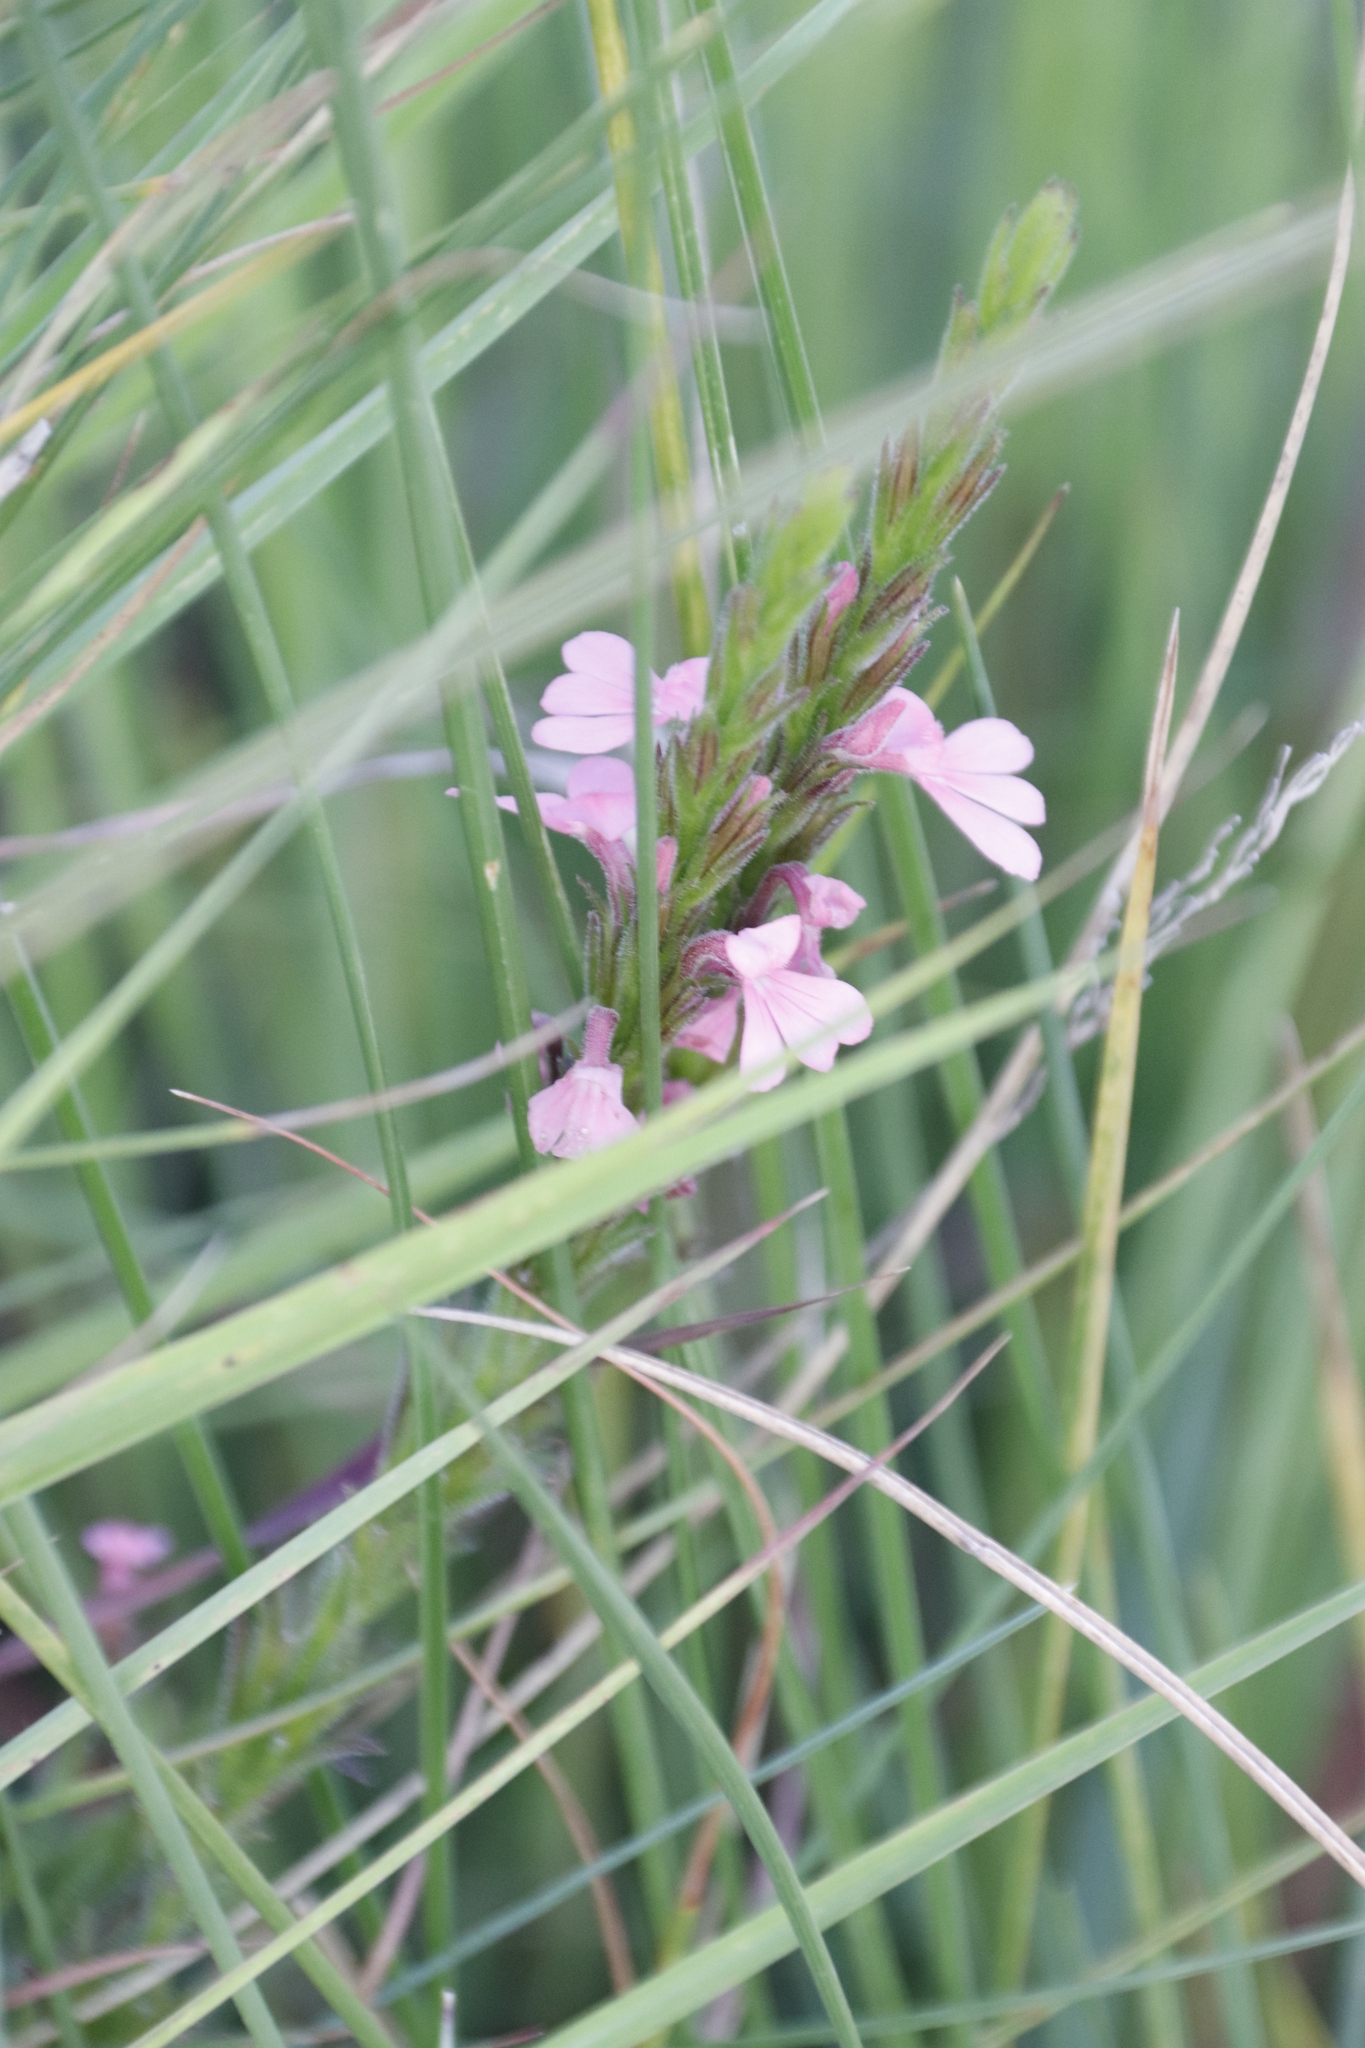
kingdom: Plantae
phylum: Tracheophyta
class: Magnoliopsida
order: Lamiales
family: Orobanchaceae
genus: Striga
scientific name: Striga elegans
